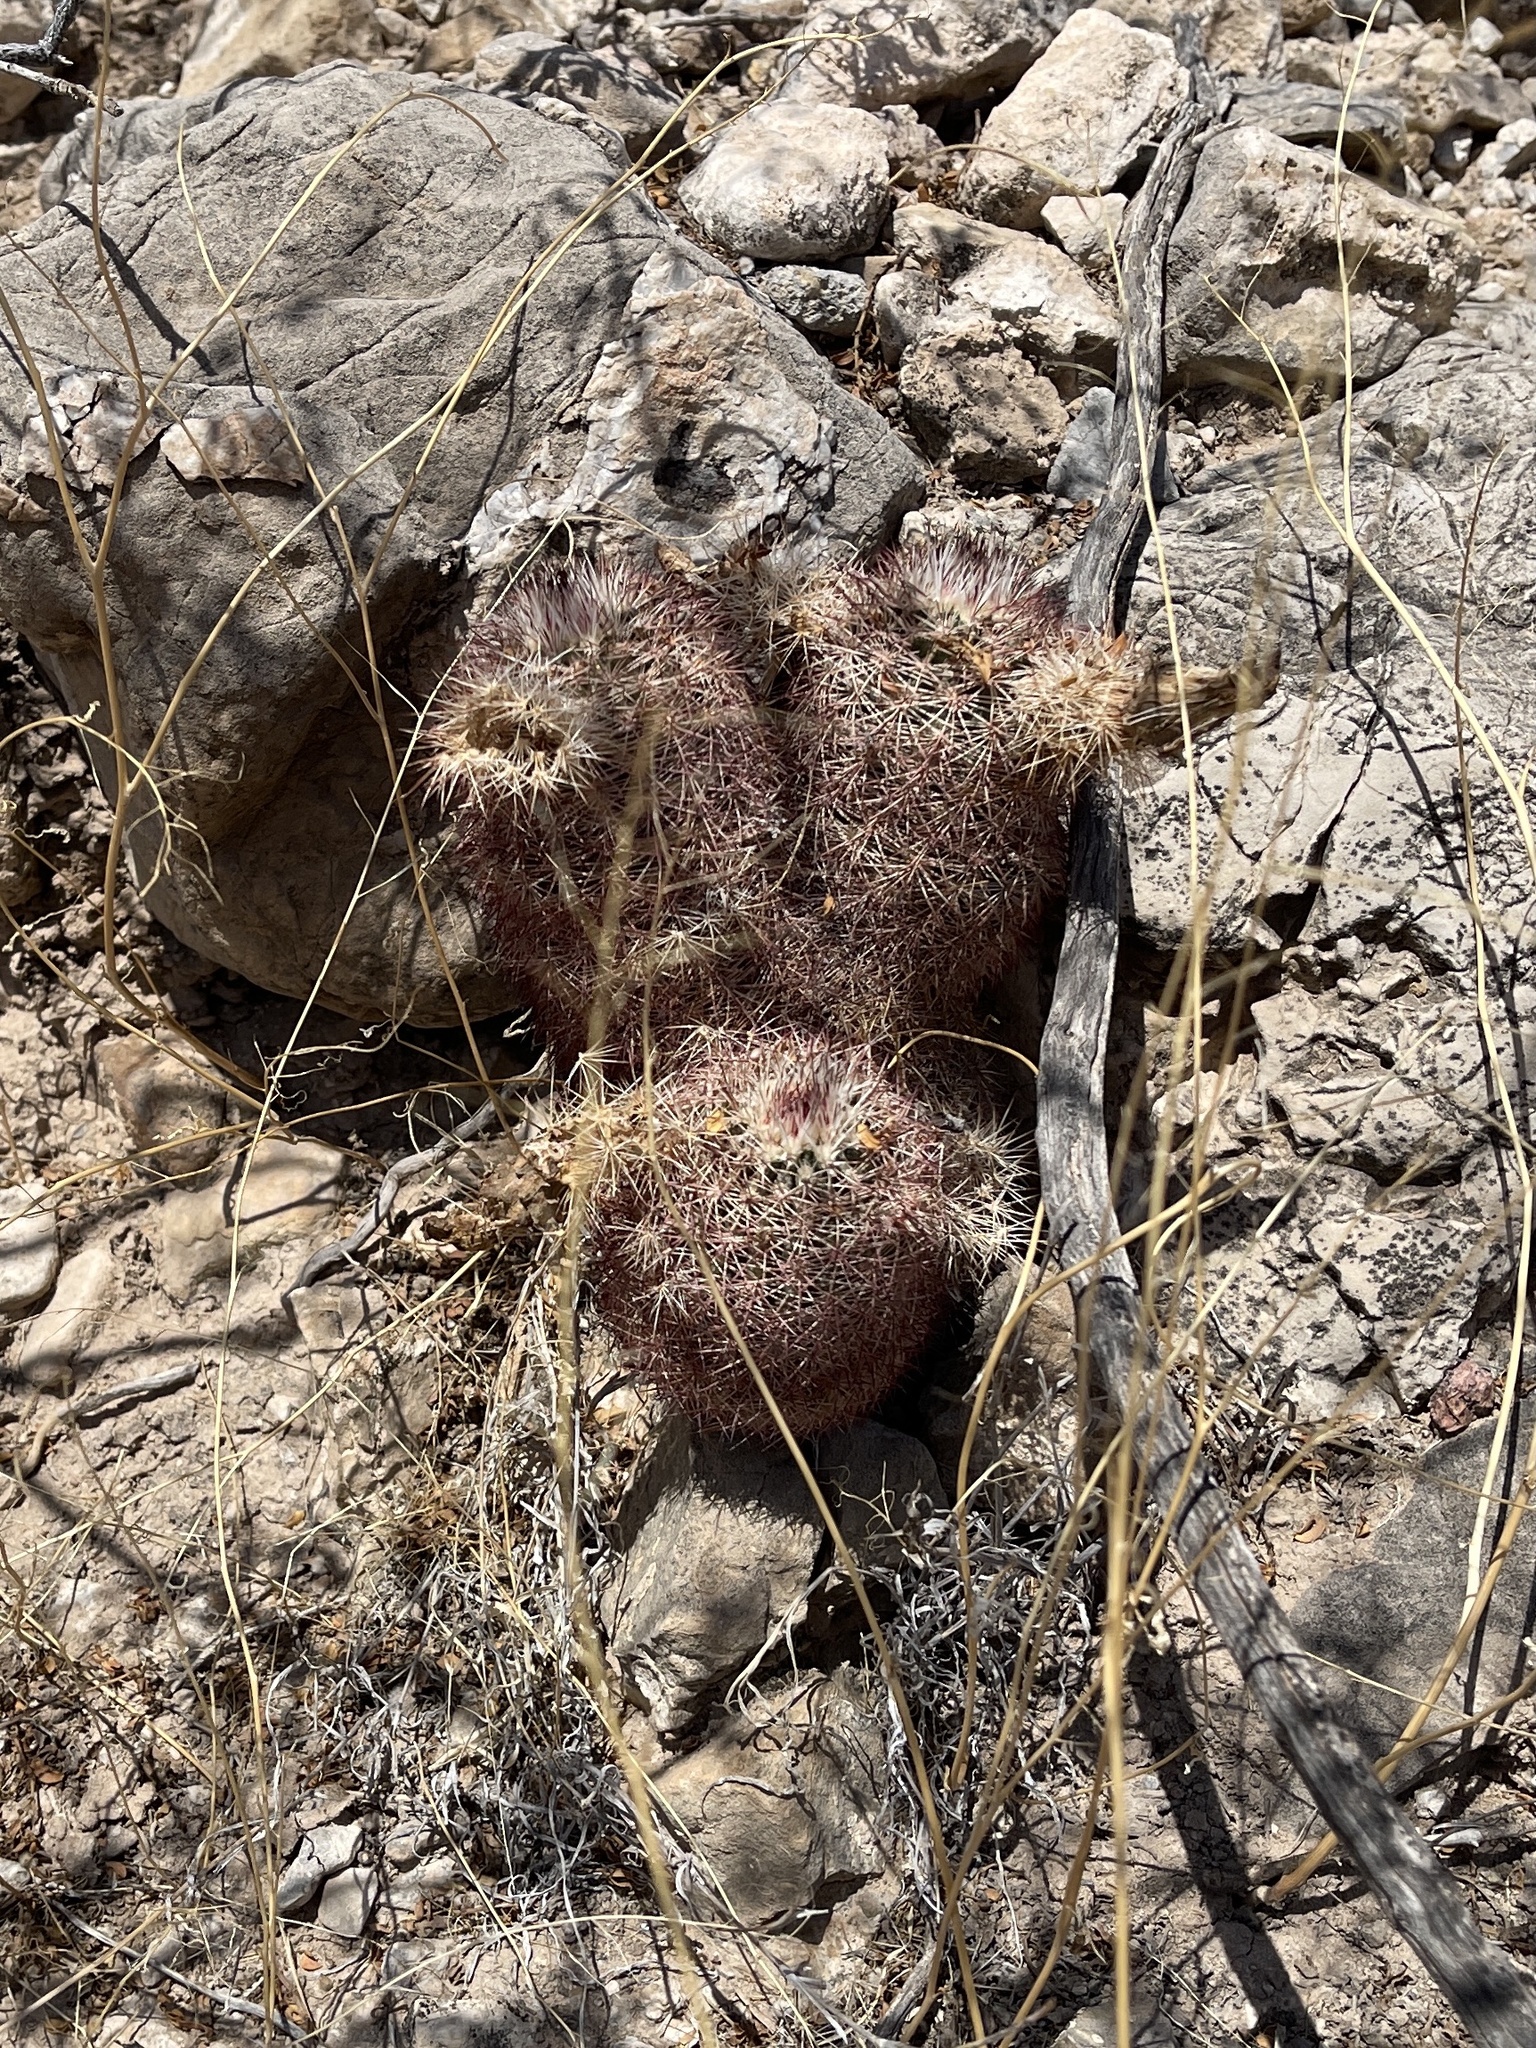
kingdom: Plantae
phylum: Tracheophyta
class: Magnoliopsida
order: Caryophyllales
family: Cactaceae
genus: Echinocereus
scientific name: Echinocereus dasyacanthus
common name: Spiny hedgehog cactus
